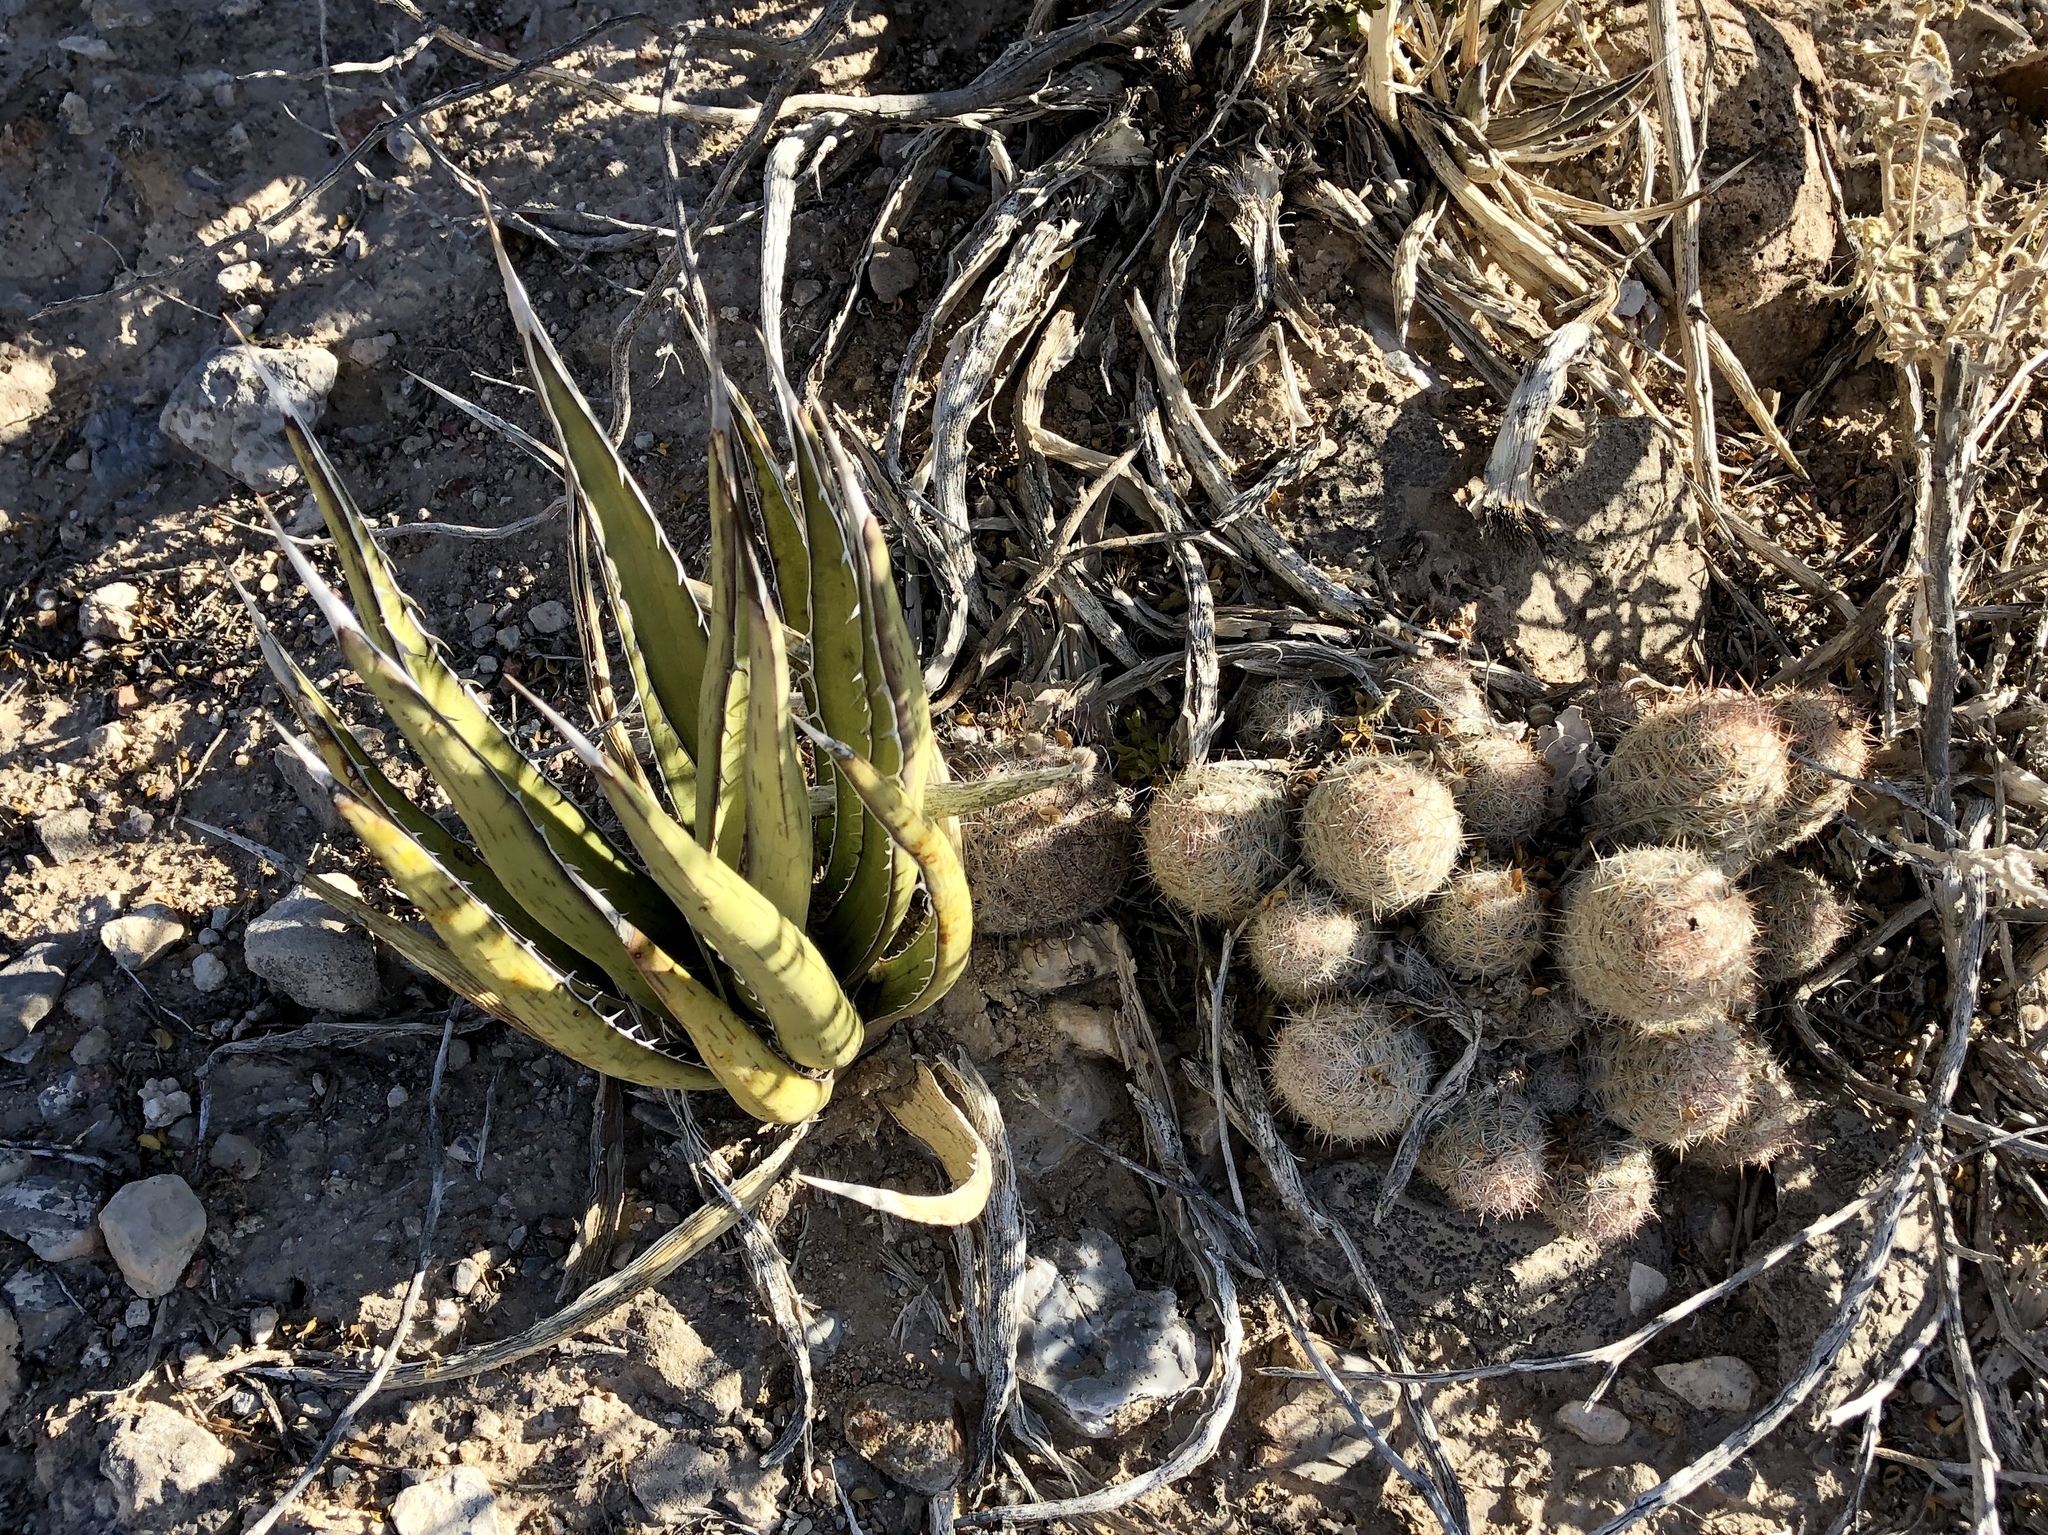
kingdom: Plantae
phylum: Tracheophyta
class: Magnoliopsida
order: Caryophyllales
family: Cactaceae
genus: Cochemiea
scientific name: Cochemiea grahamii
